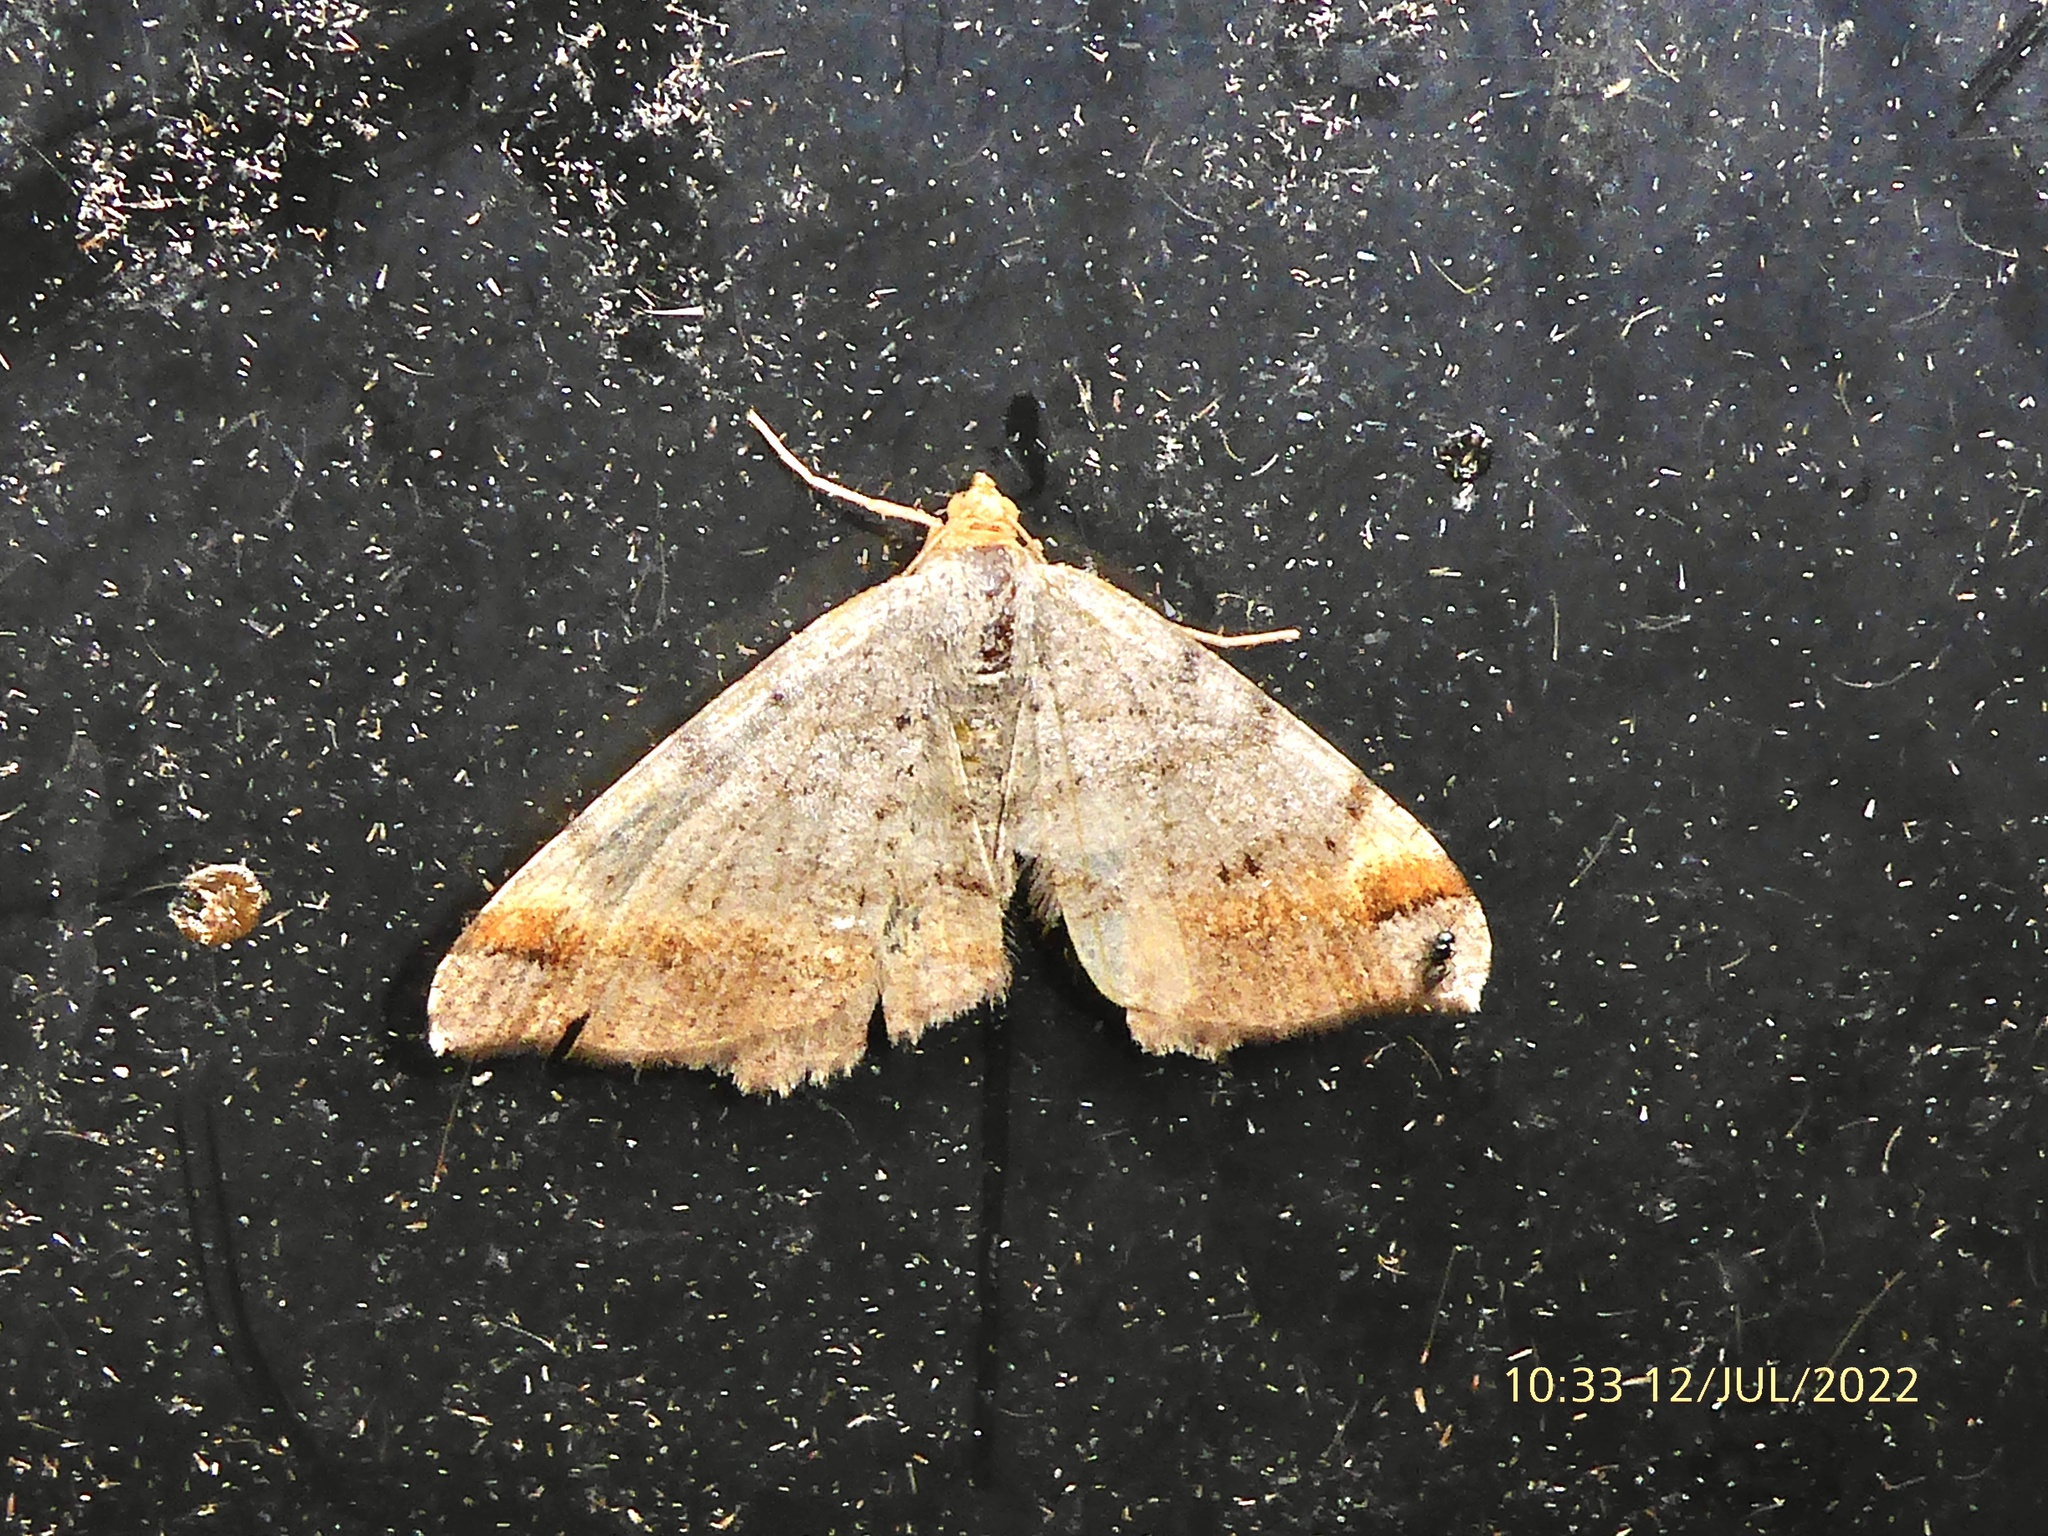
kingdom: Animalia
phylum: Arthropoda
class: Insecta
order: Lepidoptera
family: Geometridae
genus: Macaria
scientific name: Macaria liturata
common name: Tawny-barred angle
